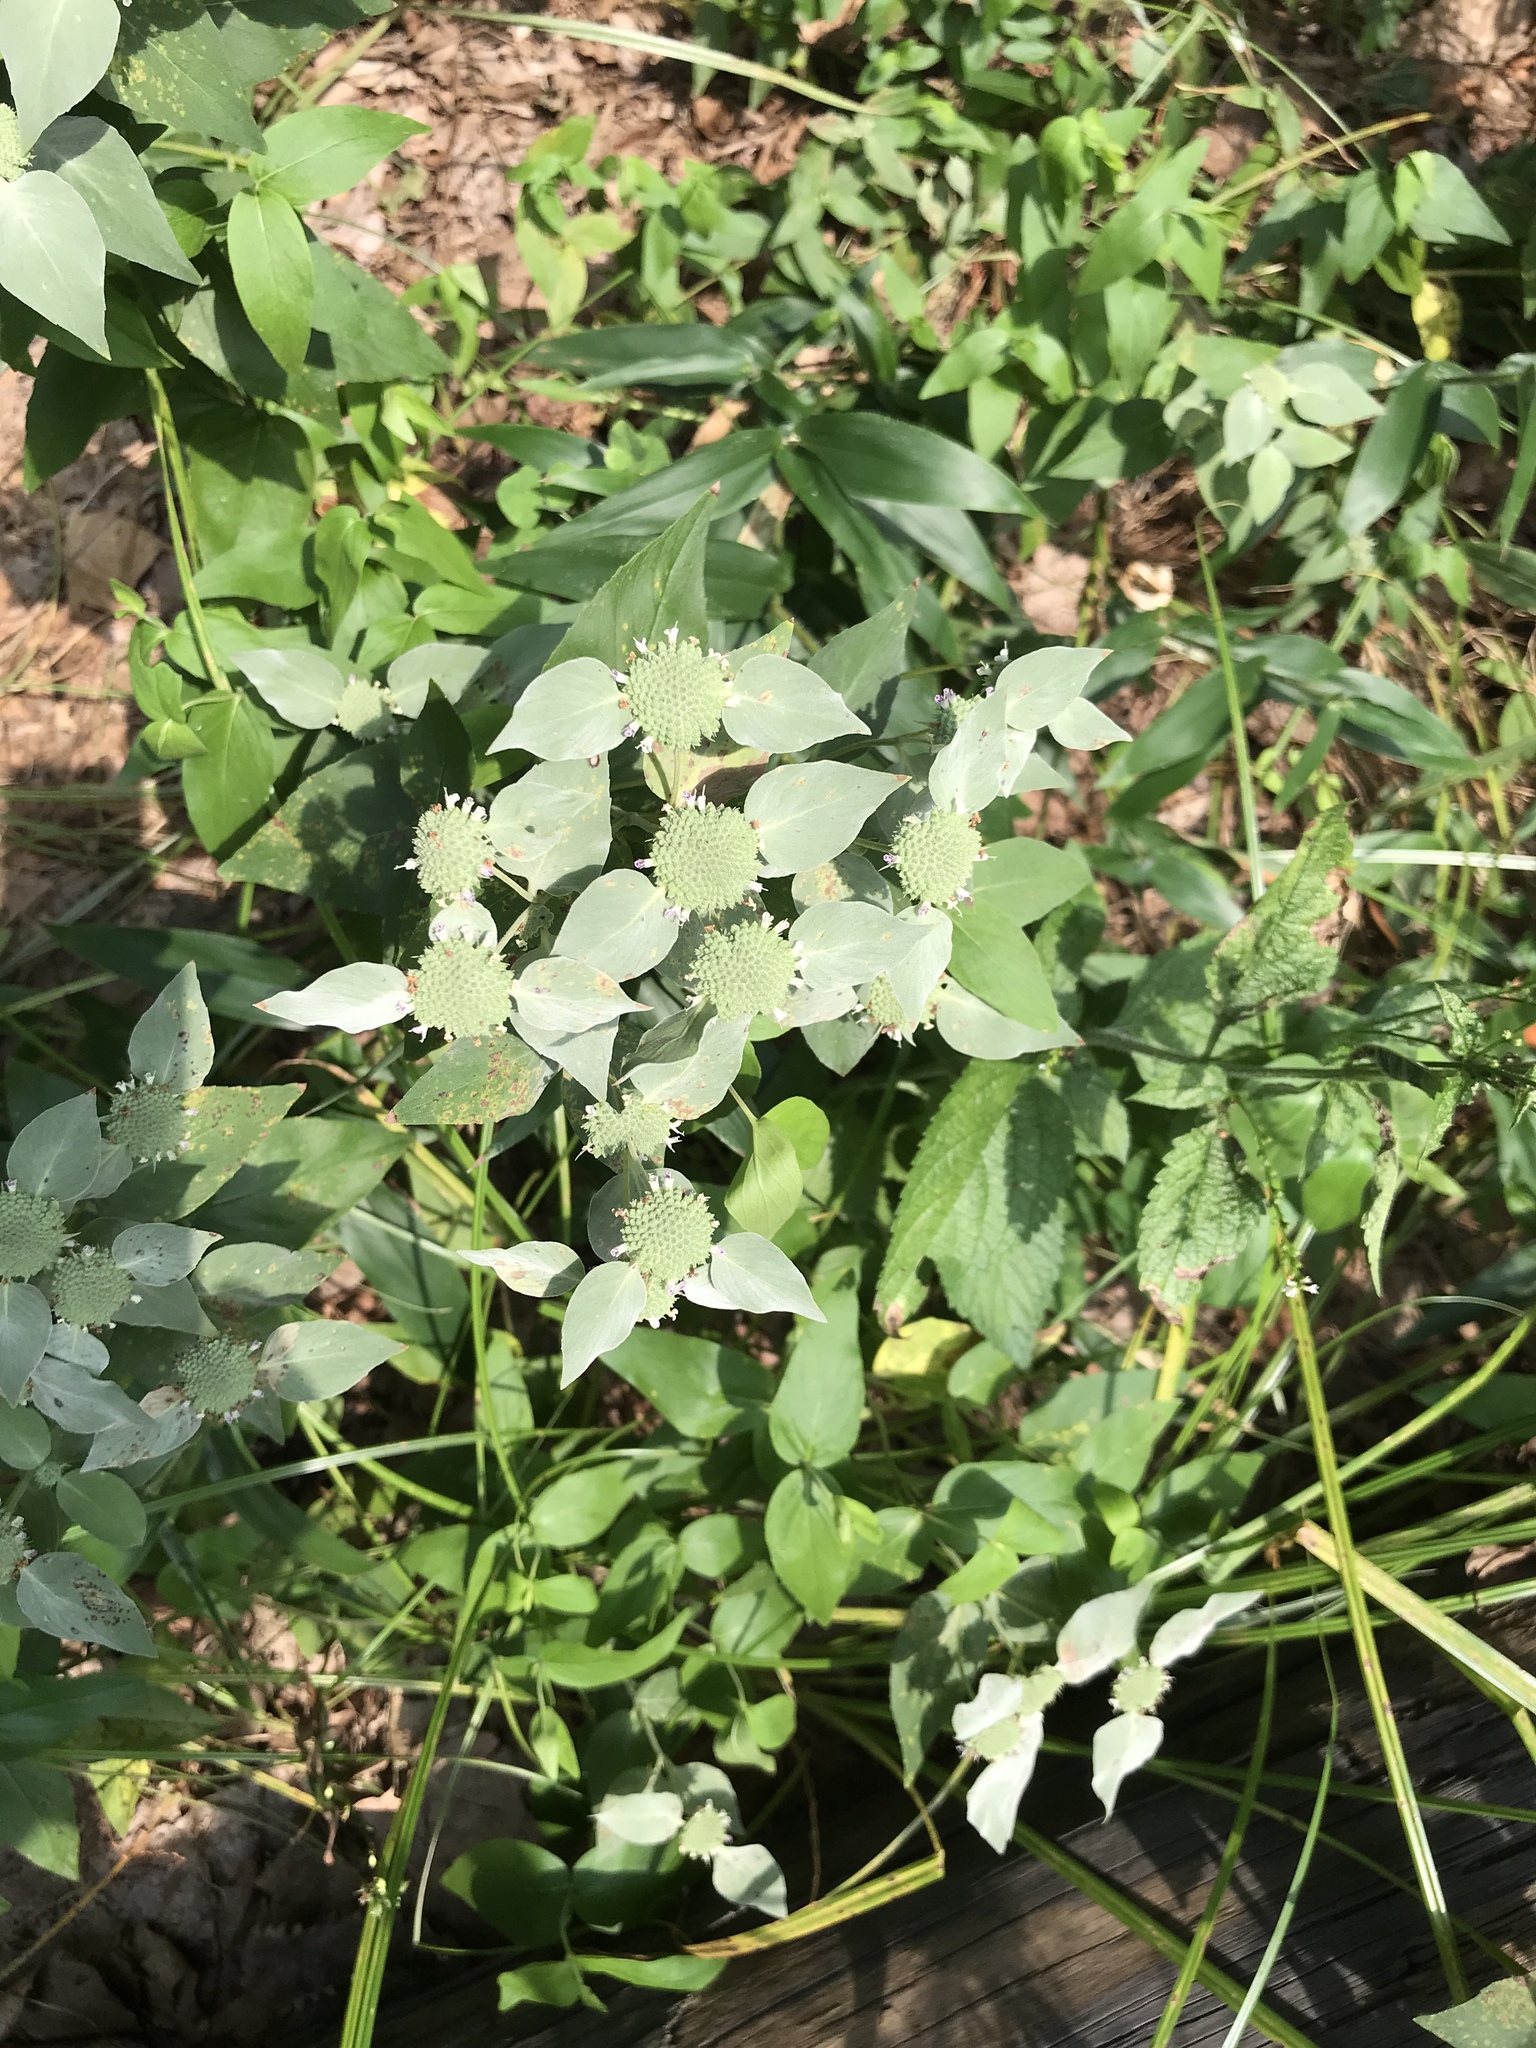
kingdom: Plantae
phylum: Tracheophyta
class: Magnoliopsida
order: Lamiales
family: Lamiaceae
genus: Pycnanthemum
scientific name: Pycnanthemum muticum
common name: Blunt mountain-mint
